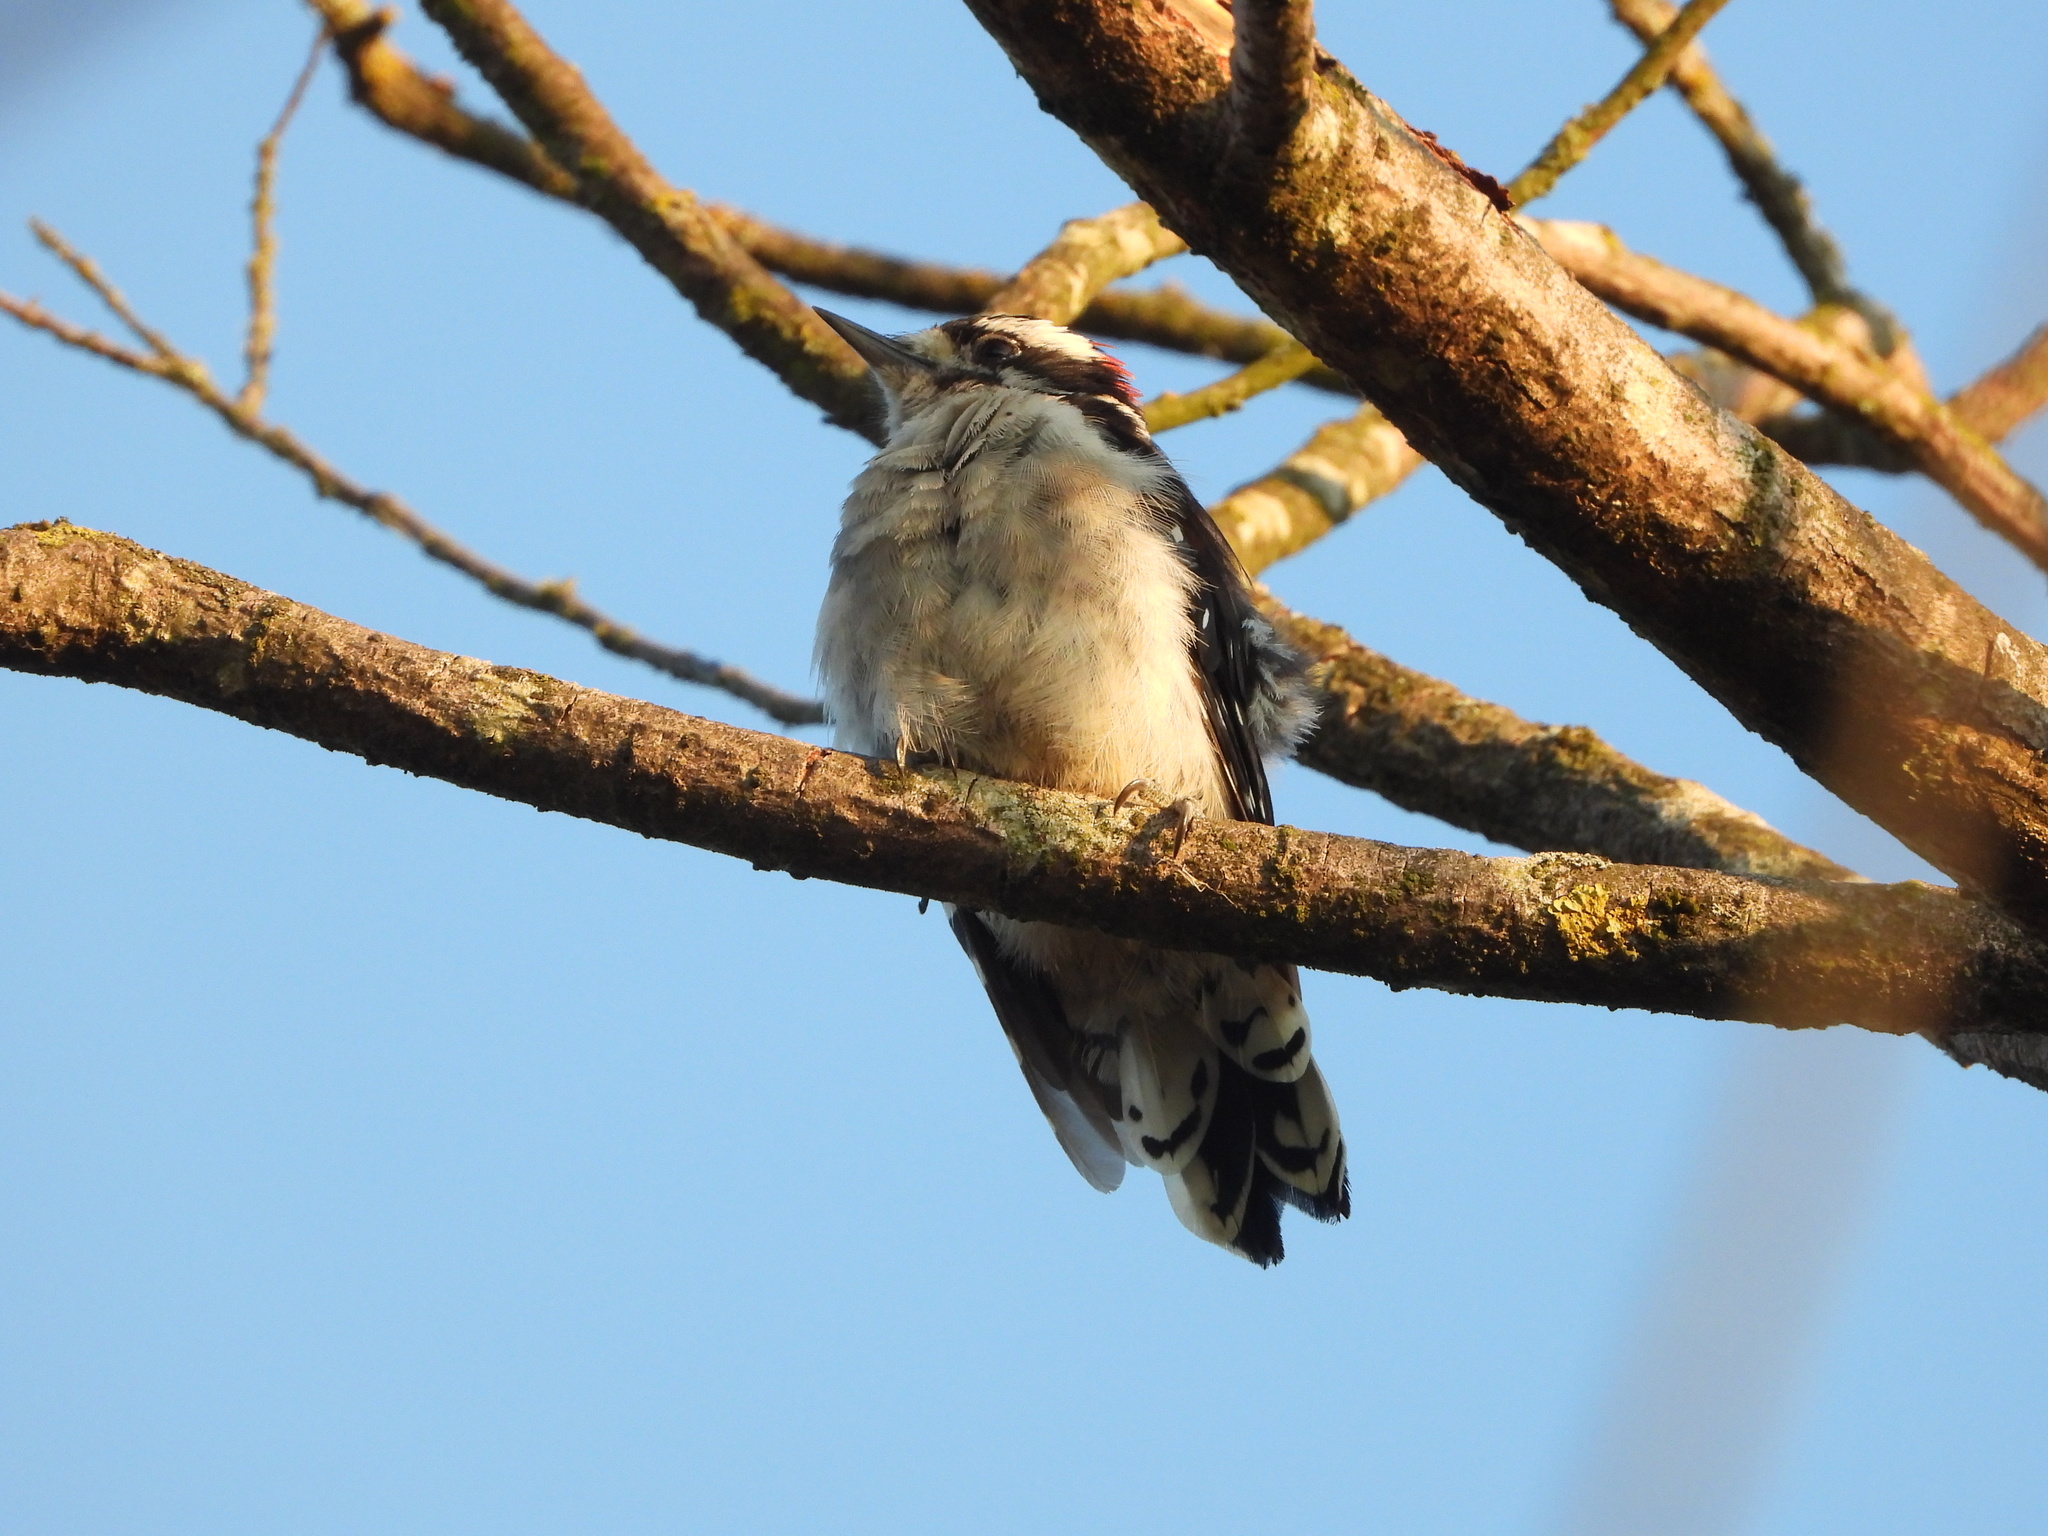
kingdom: Animalia
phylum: Chordata
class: Aves
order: Piciformes
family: Picidae
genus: Dryobates
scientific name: Dryobates pubescens
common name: Downy woodpecker
